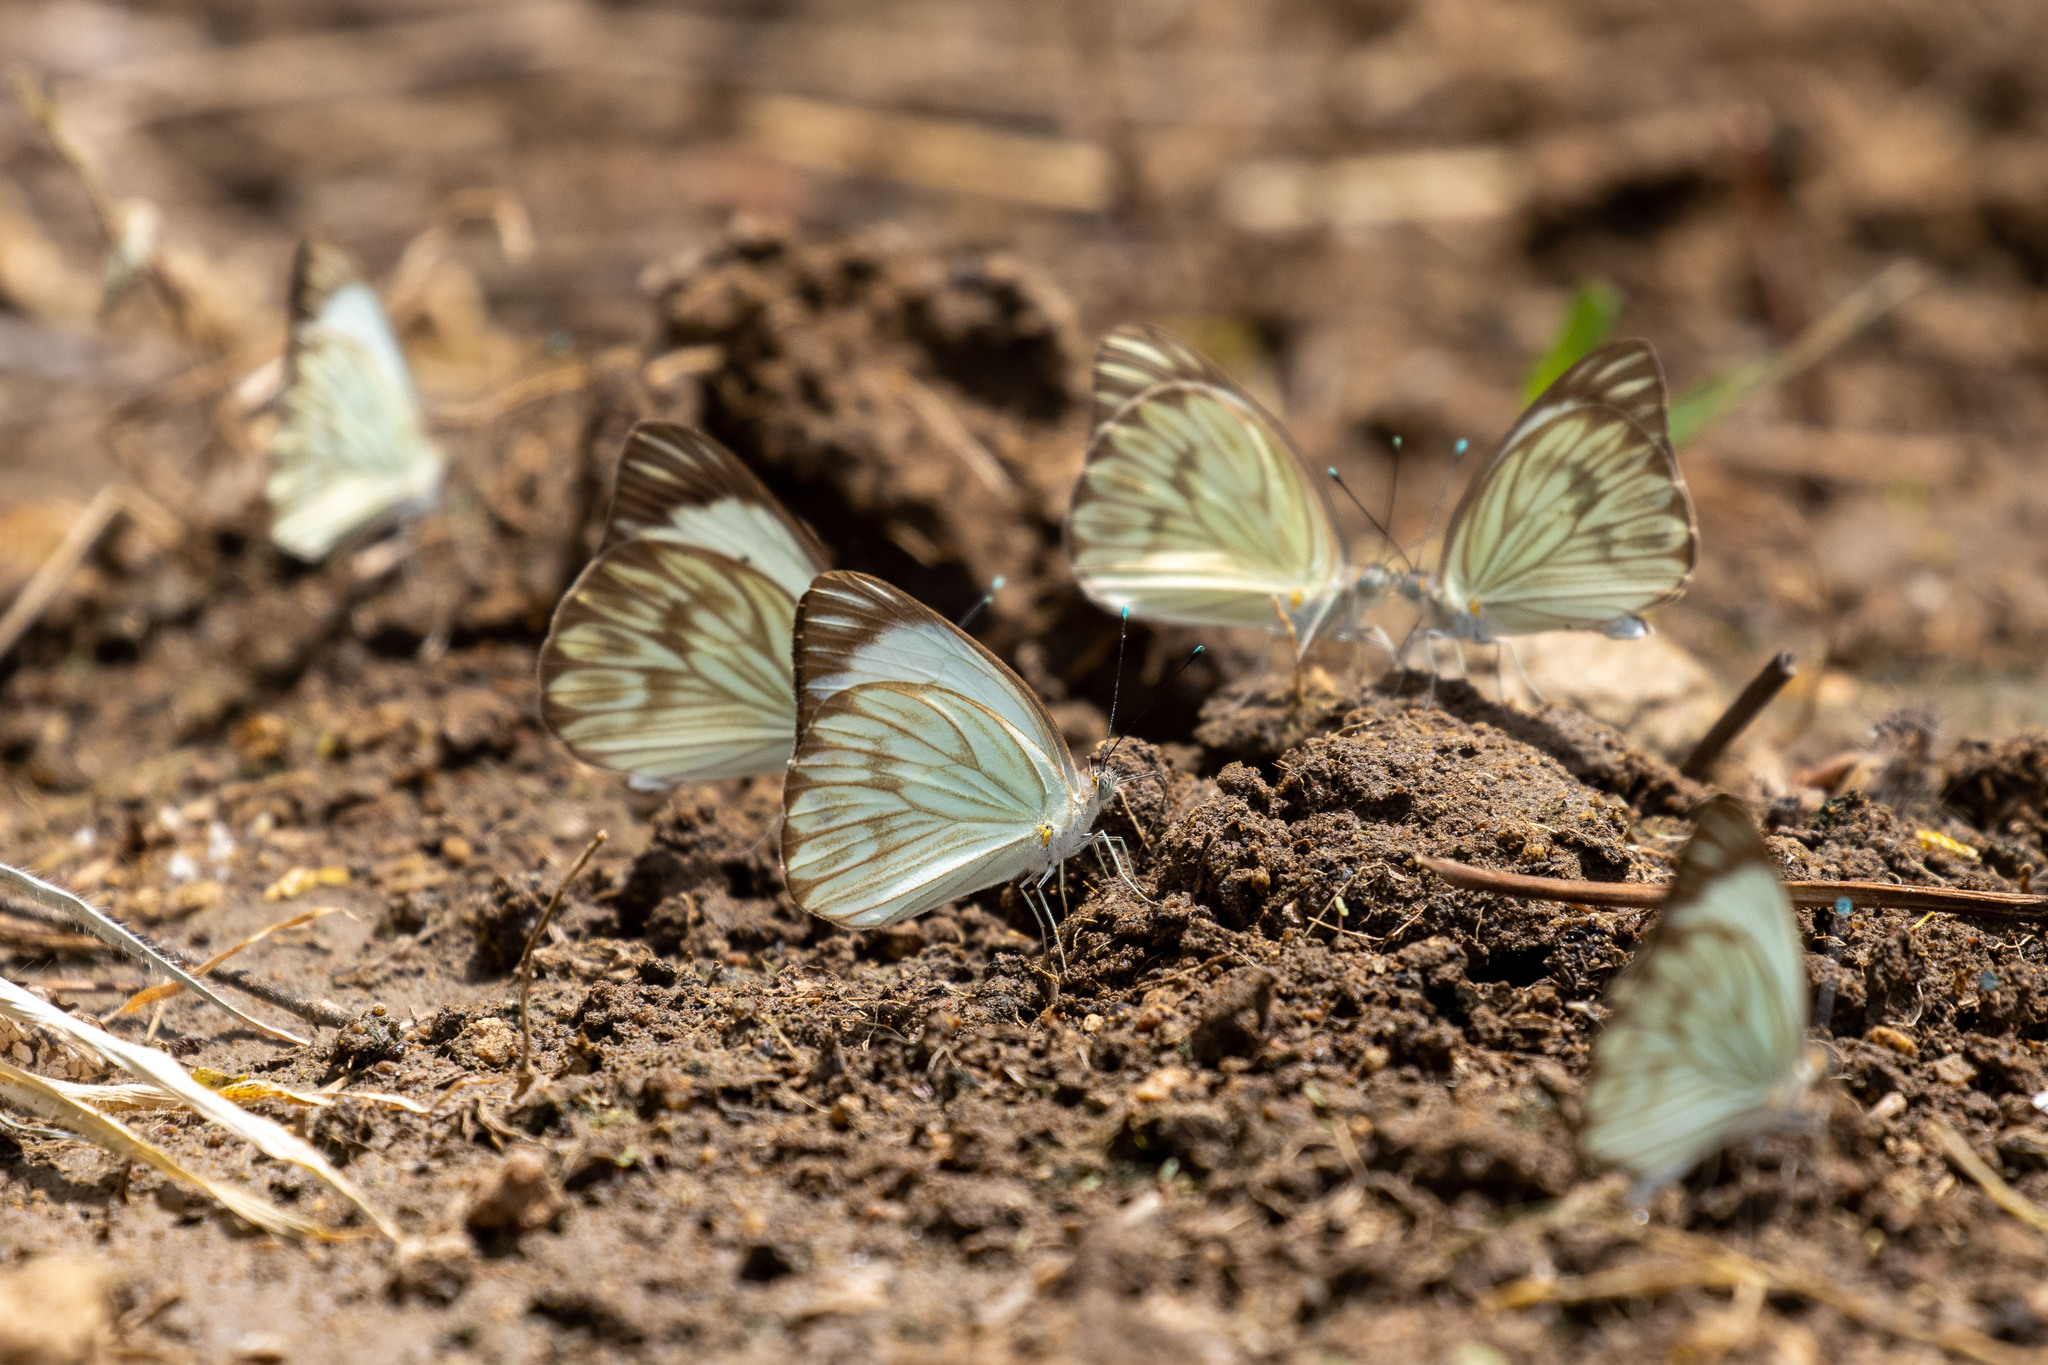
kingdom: Animalia
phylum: Arthropoda
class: Insecta
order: Lepidoptera
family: Pieridae
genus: Ascia
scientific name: Ascia monuste
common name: Great southern white
